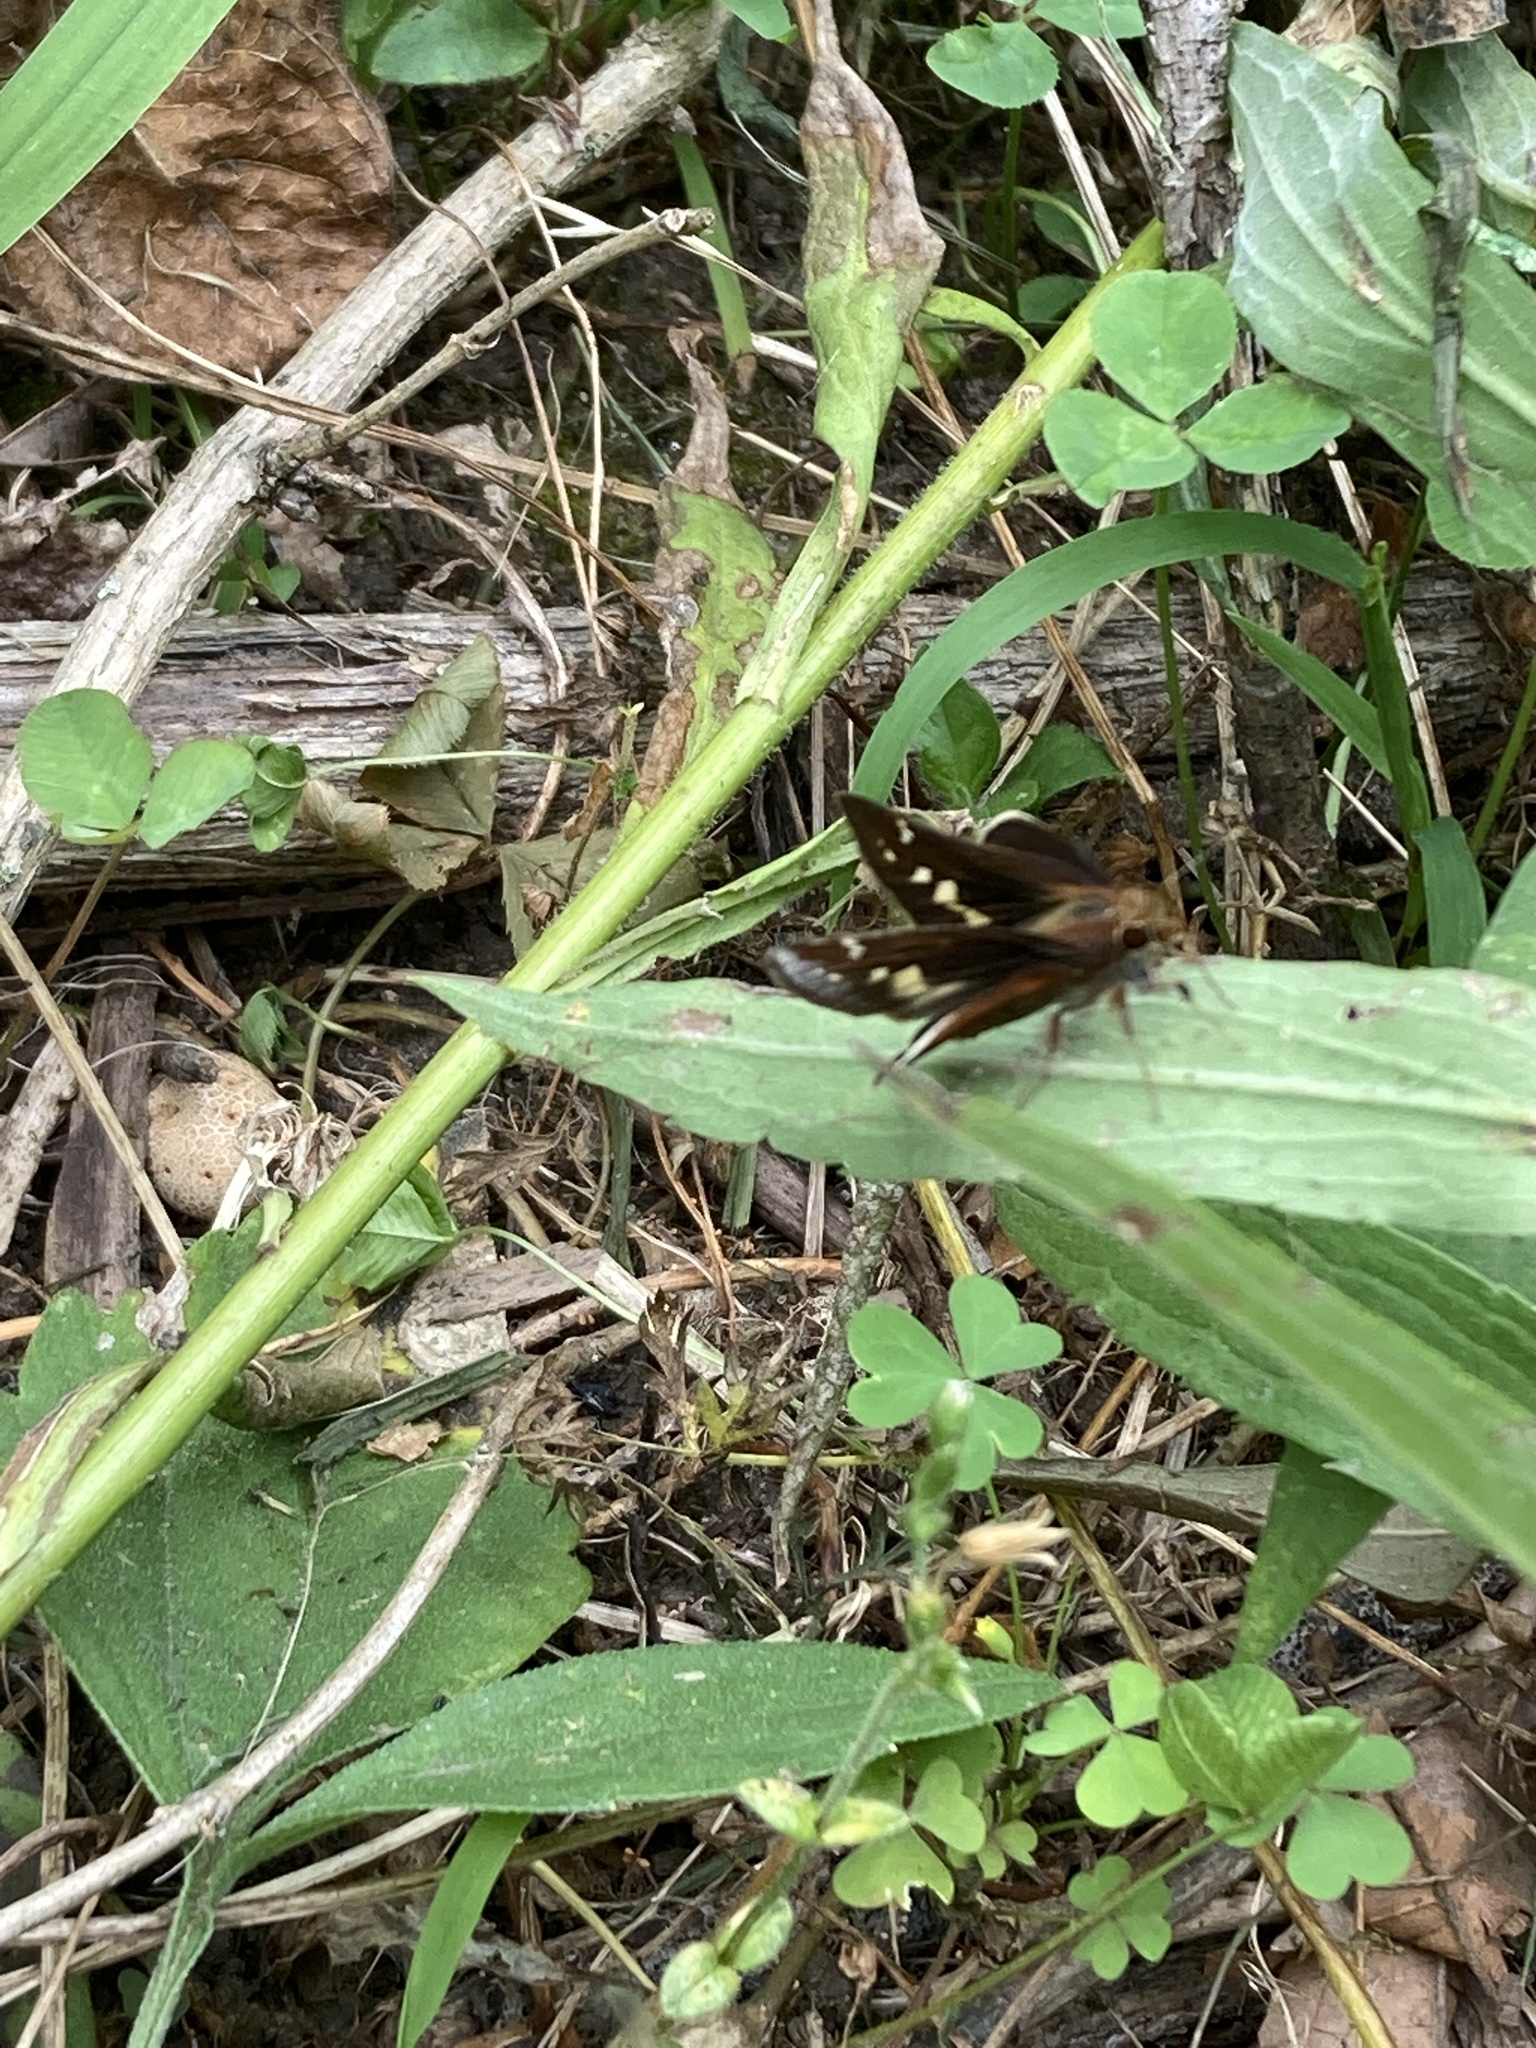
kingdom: Animalia
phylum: Arthropoda
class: Insecta
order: Lepidoptera
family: Hesperiidae
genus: Lon
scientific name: Lon zabulon
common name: Zabulon skipper
